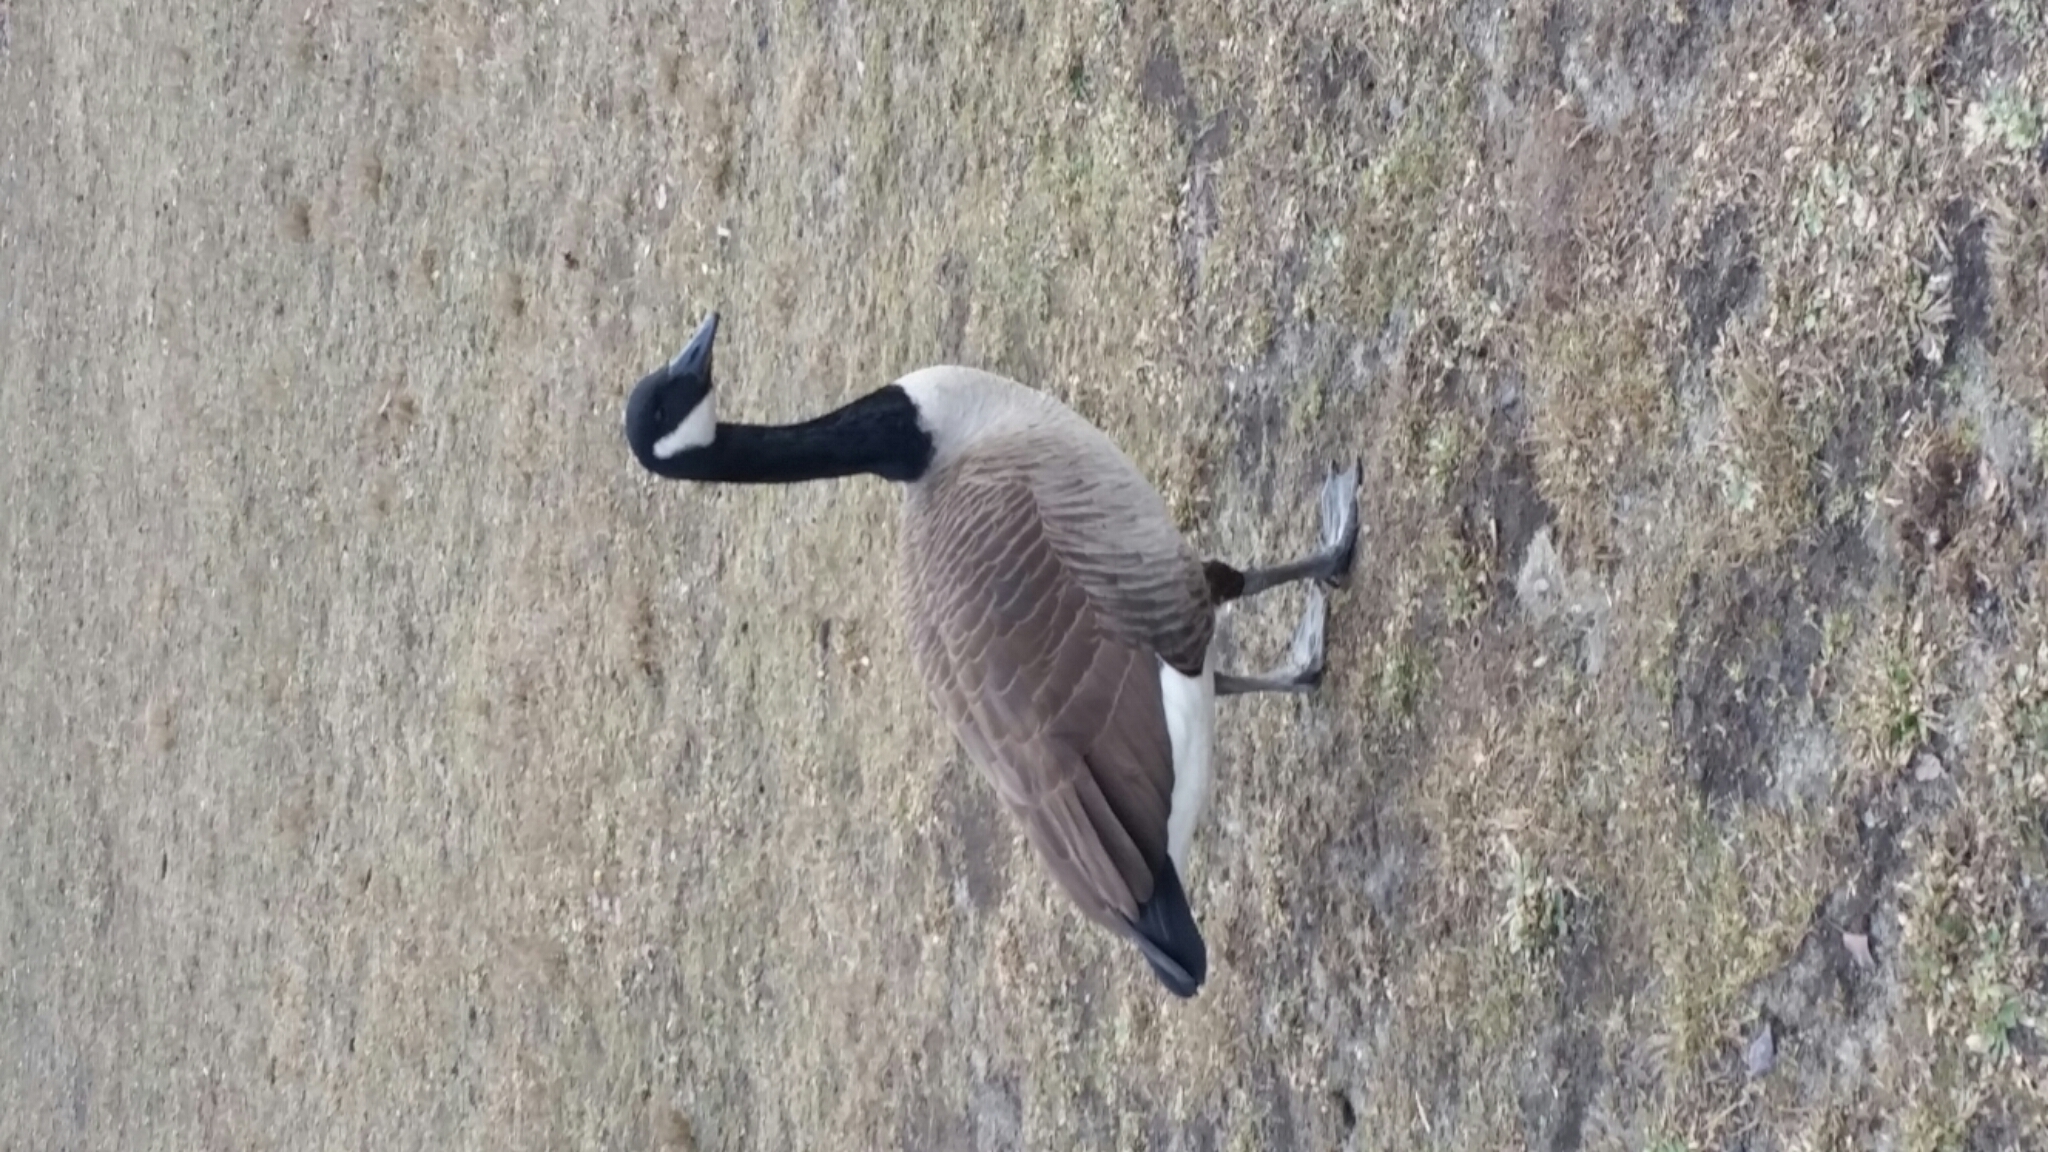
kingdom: Animalia
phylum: Chordata
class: Aves
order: Anseriformes
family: Anatidae
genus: Branta
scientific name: Branta canadensis
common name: Canada goose
